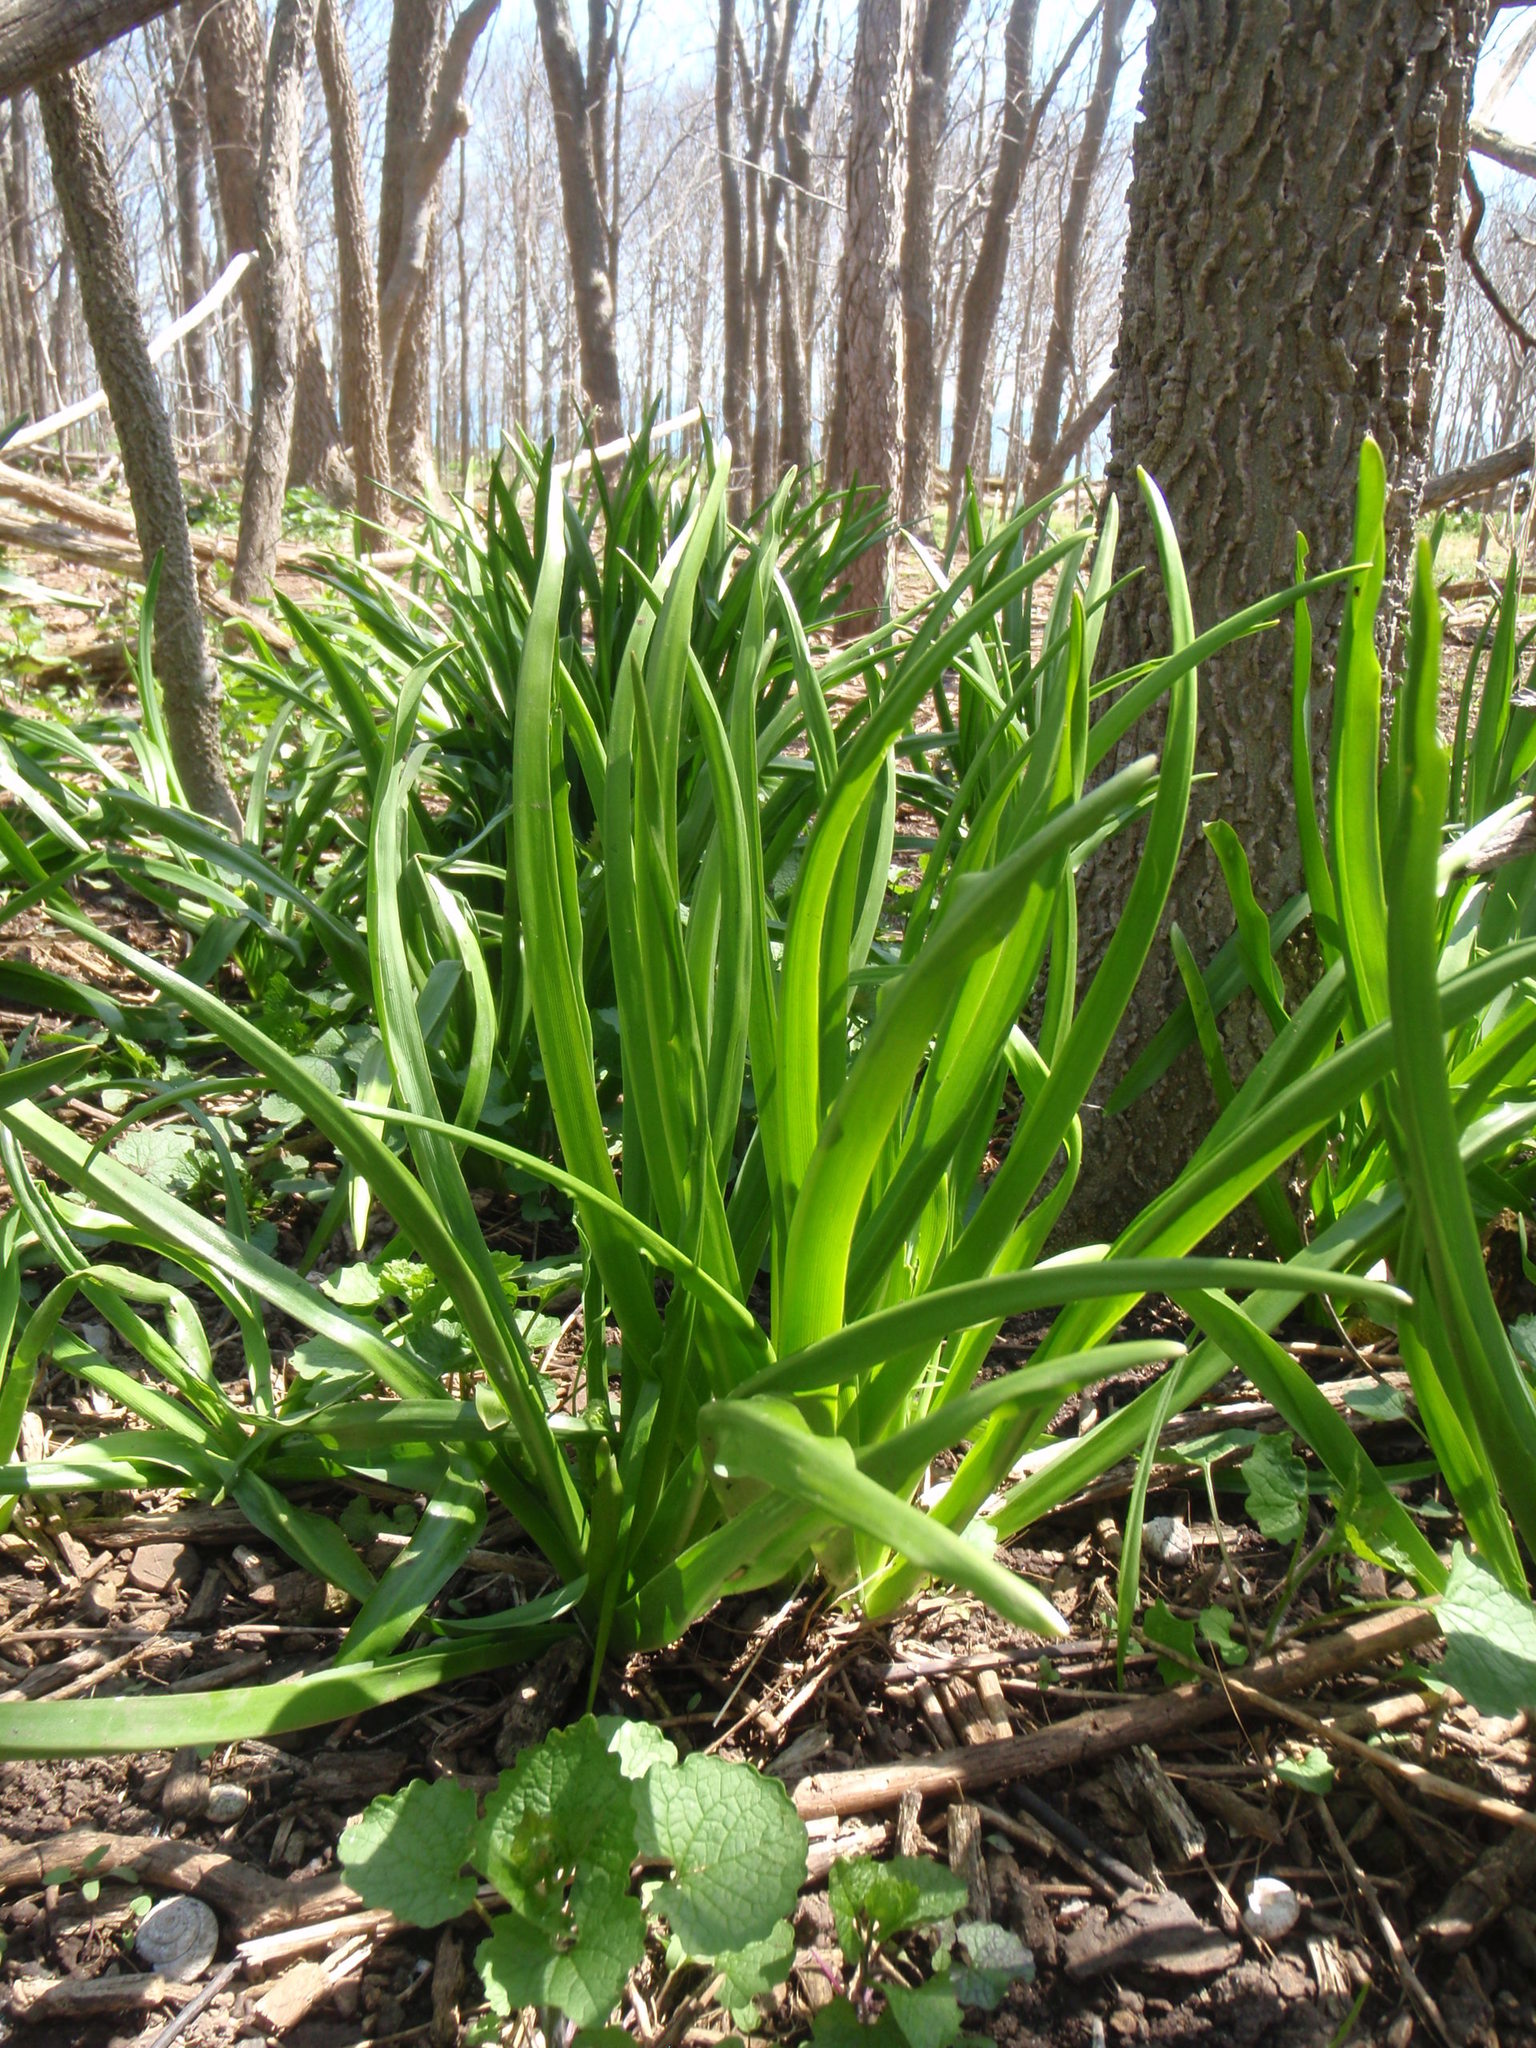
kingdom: Plantae
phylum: Tracheophyta
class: Liliopsida
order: Asparagales
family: Asparagaceae
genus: Camassia
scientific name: Camassia scilloides
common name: Wild hyacinth
